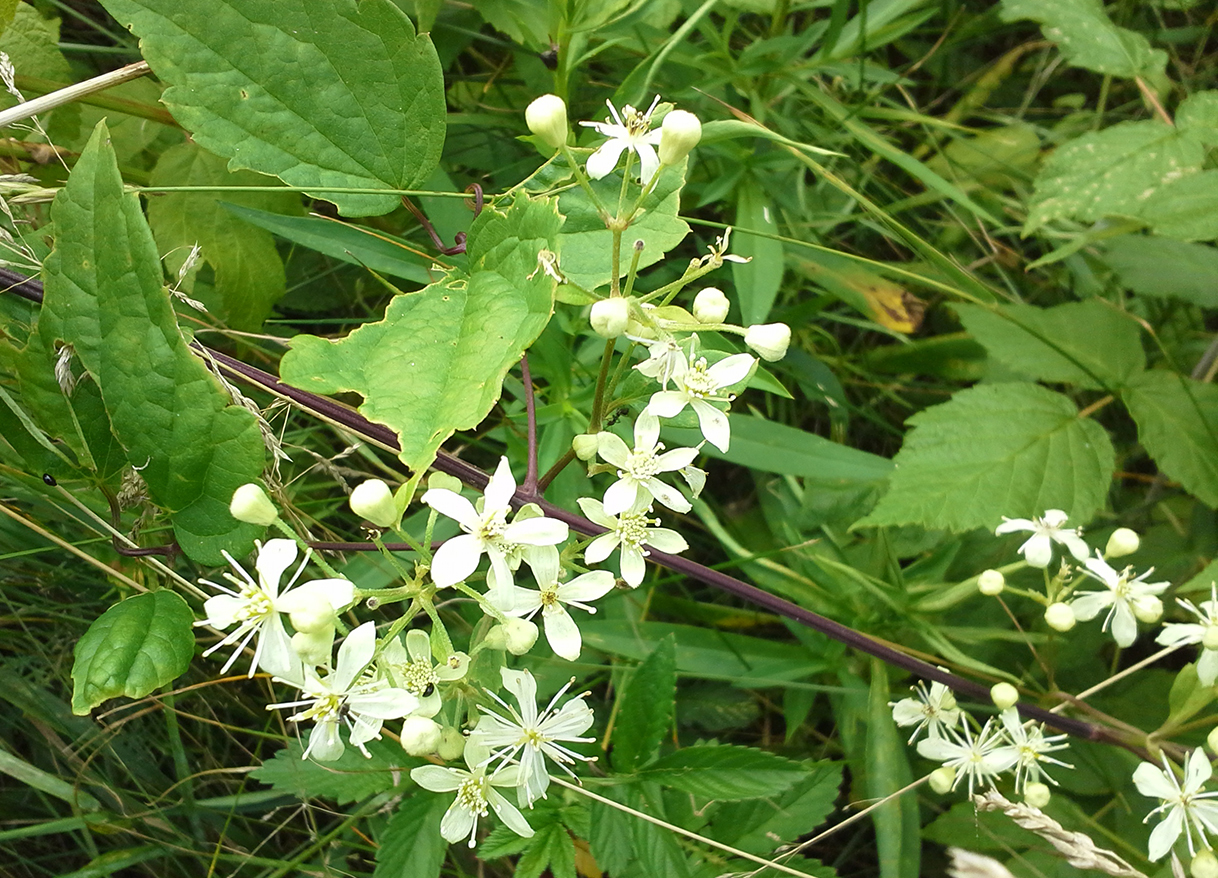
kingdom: Plantae
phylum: Tracheophyta
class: Magnoliopsida
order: Ranunculales
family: Ranunculaceae
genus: Clematis
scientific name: Clematis virginiana
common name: Virgin's-bower
